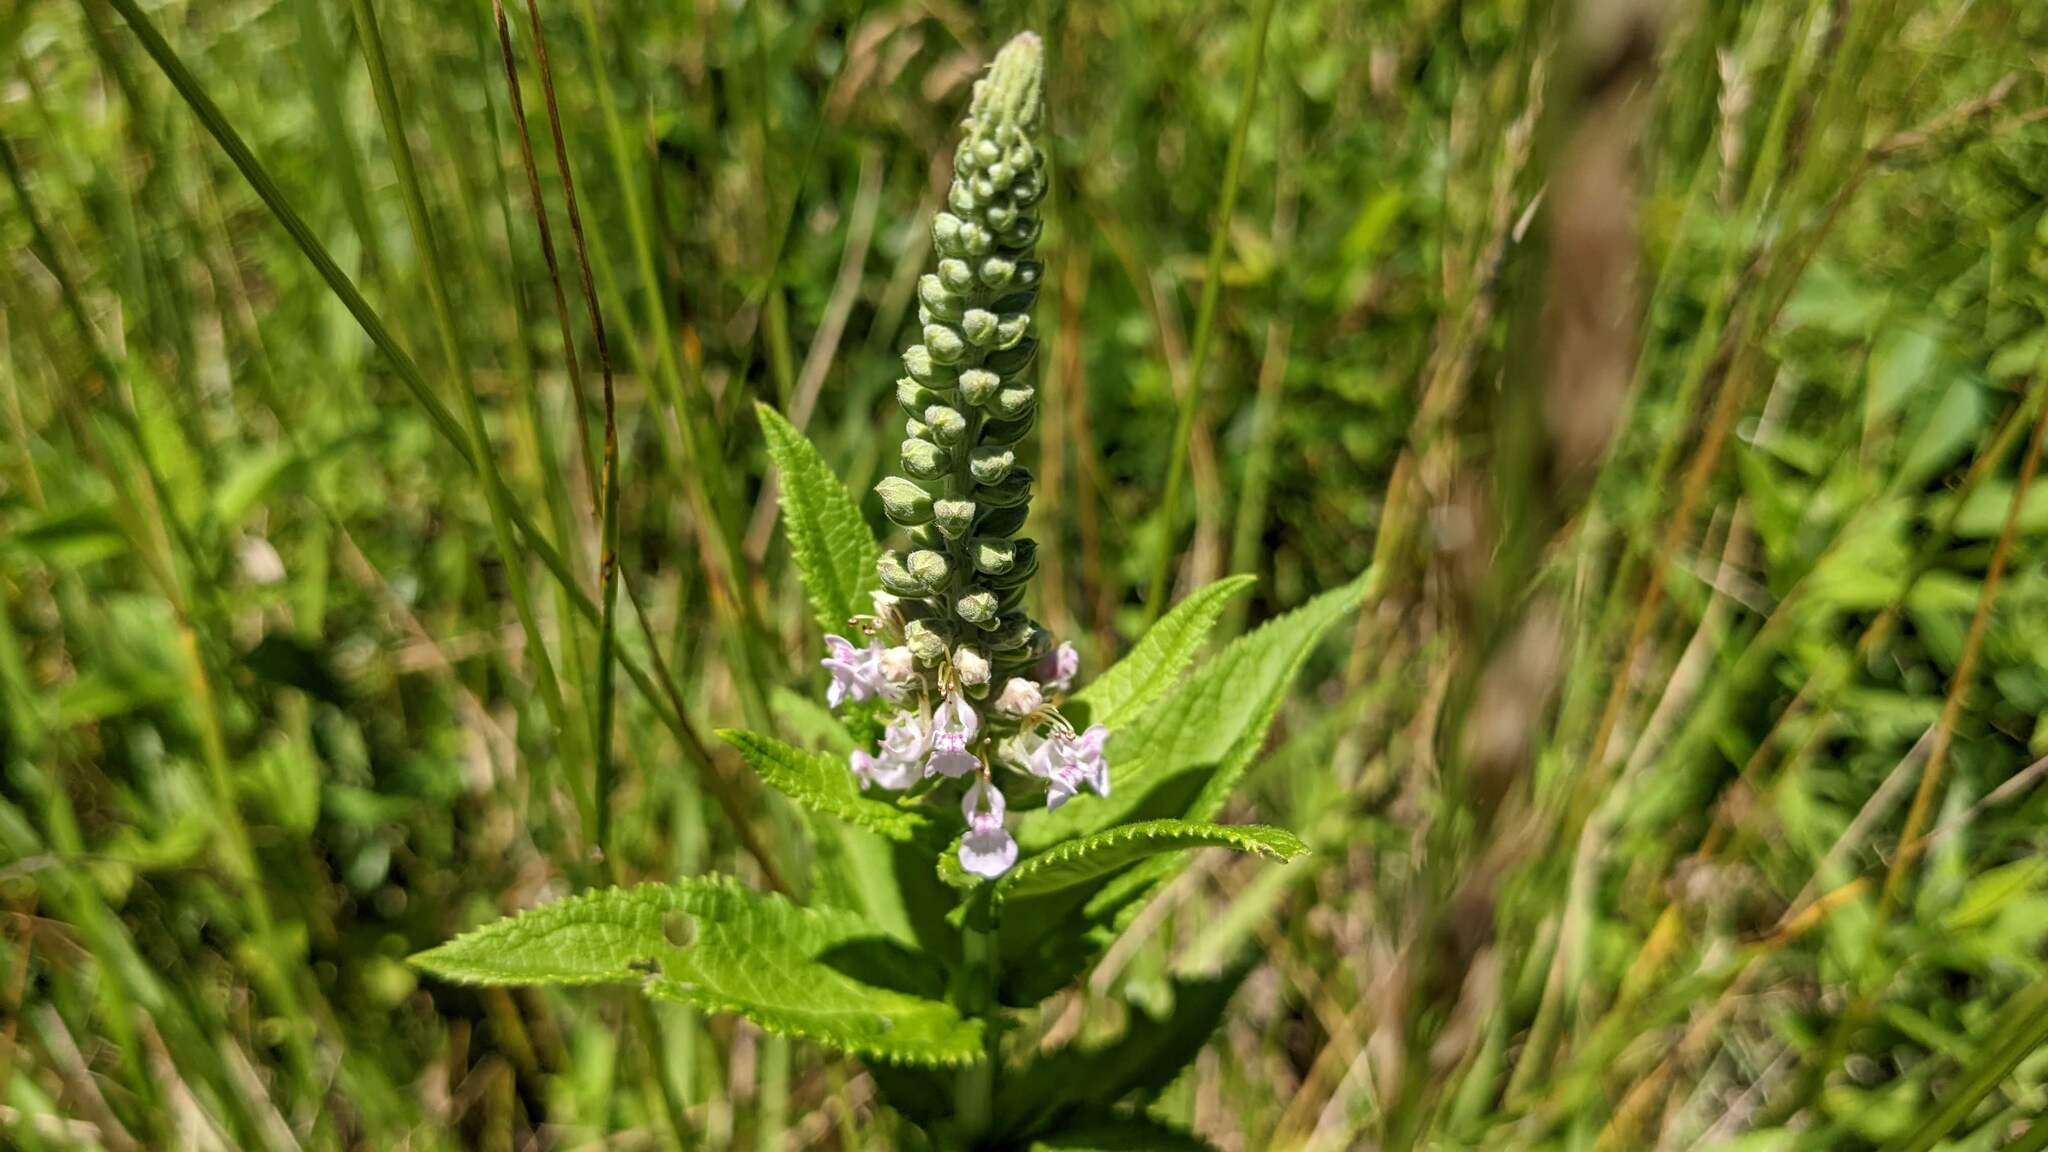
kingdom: Plantae
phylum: Tracheophyta
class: Magnoliopsida
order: Lamiales
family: Lamiaceae
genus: Teucrium
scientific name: Teucrium canadense
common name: American germander
